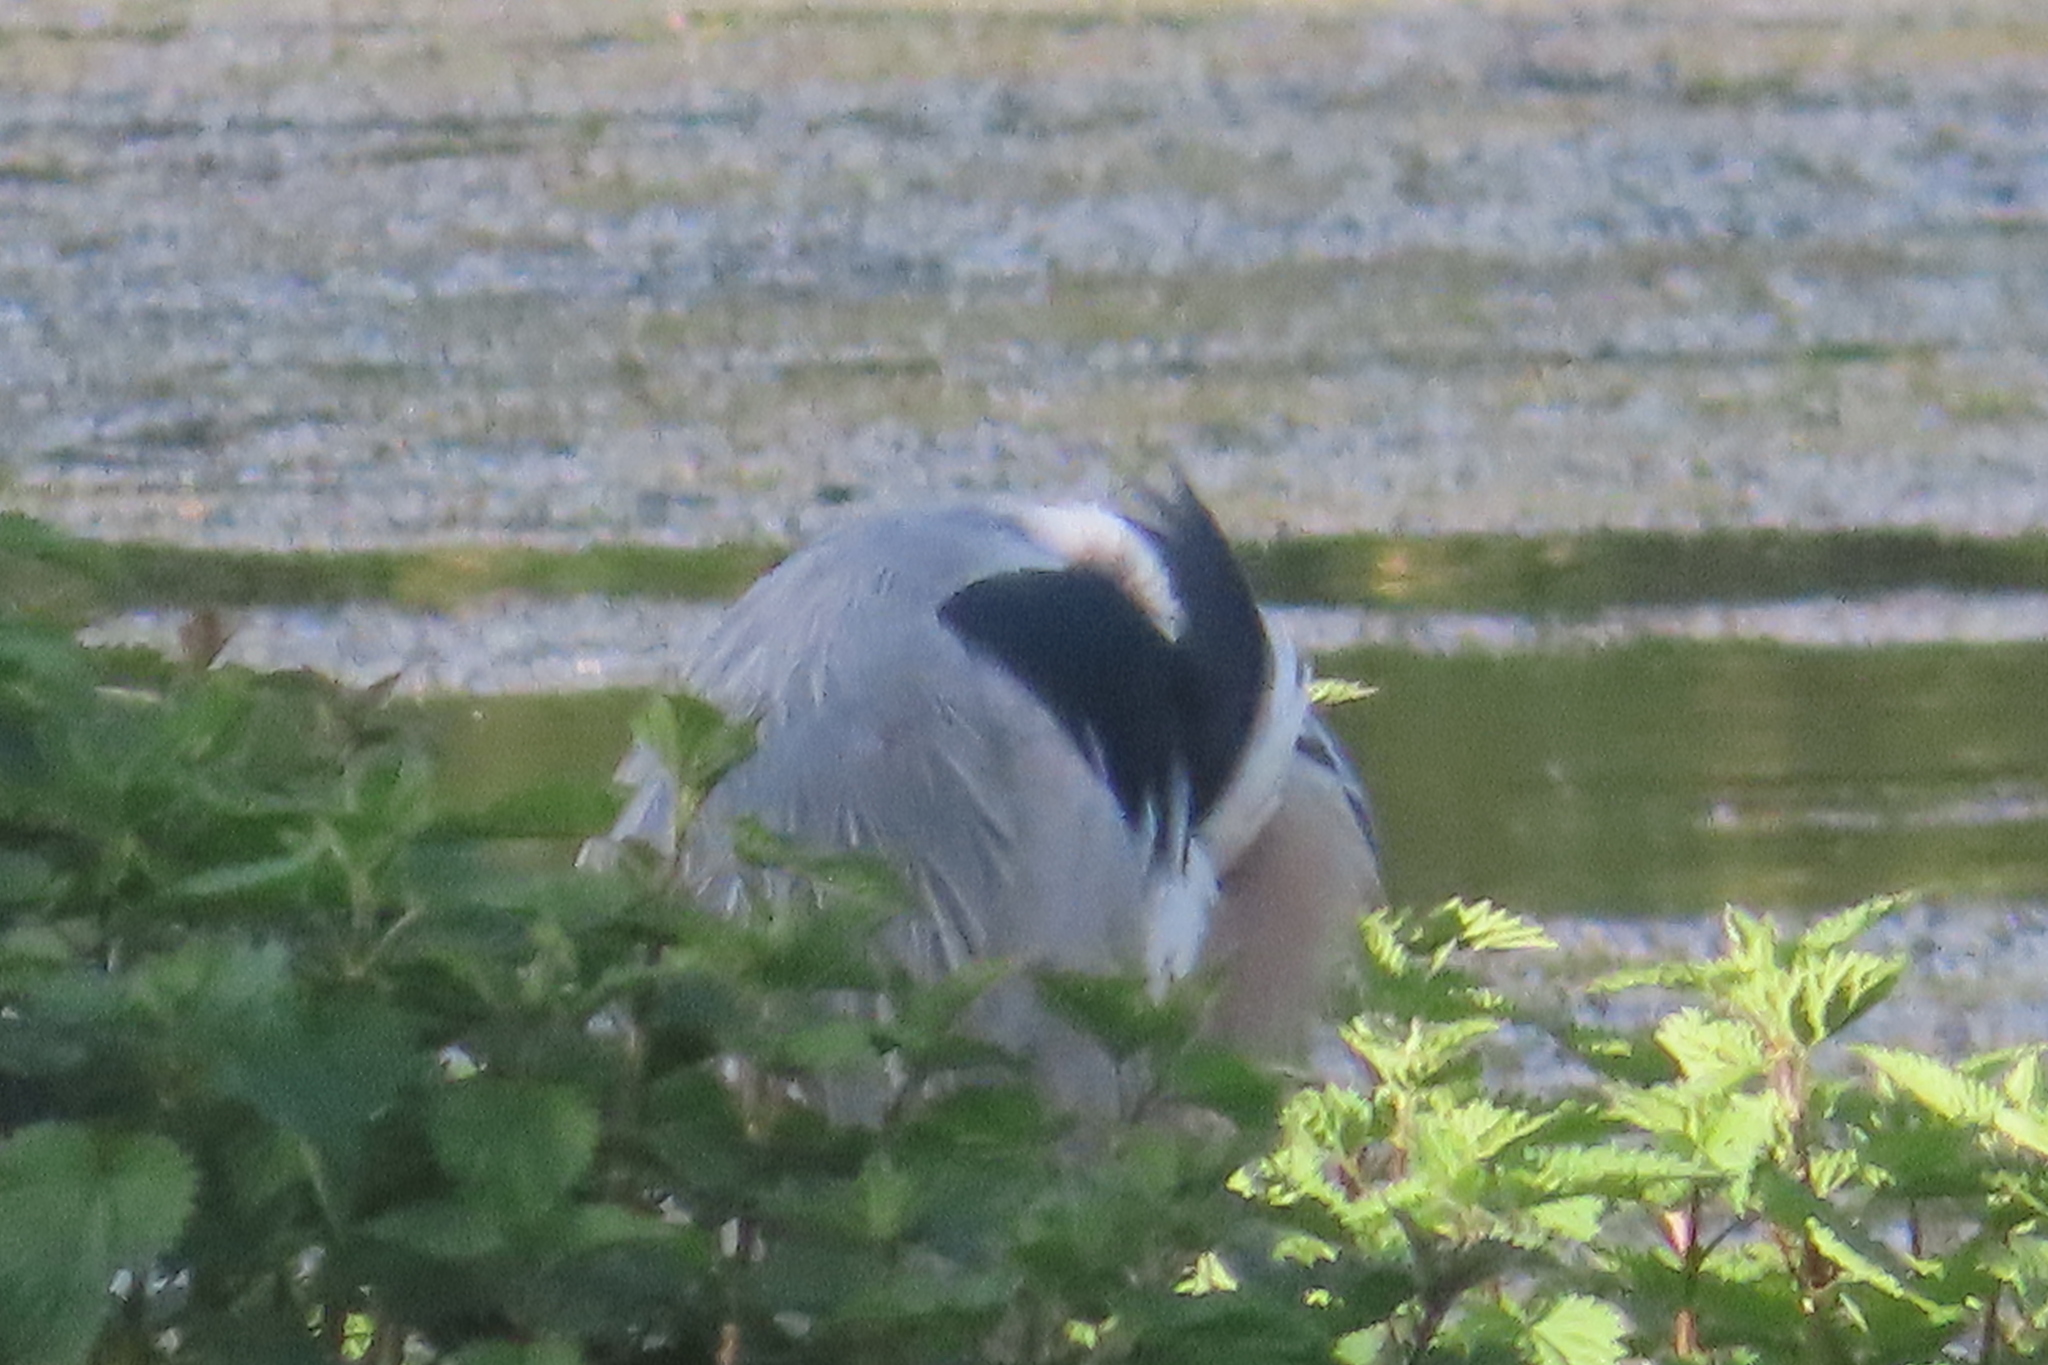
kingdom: Animalia
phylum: Chordata
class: Aves
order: Pelecaniformes
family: Ardeidae
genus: Ardea
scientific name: Ardea cinerea
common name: Grey heron
